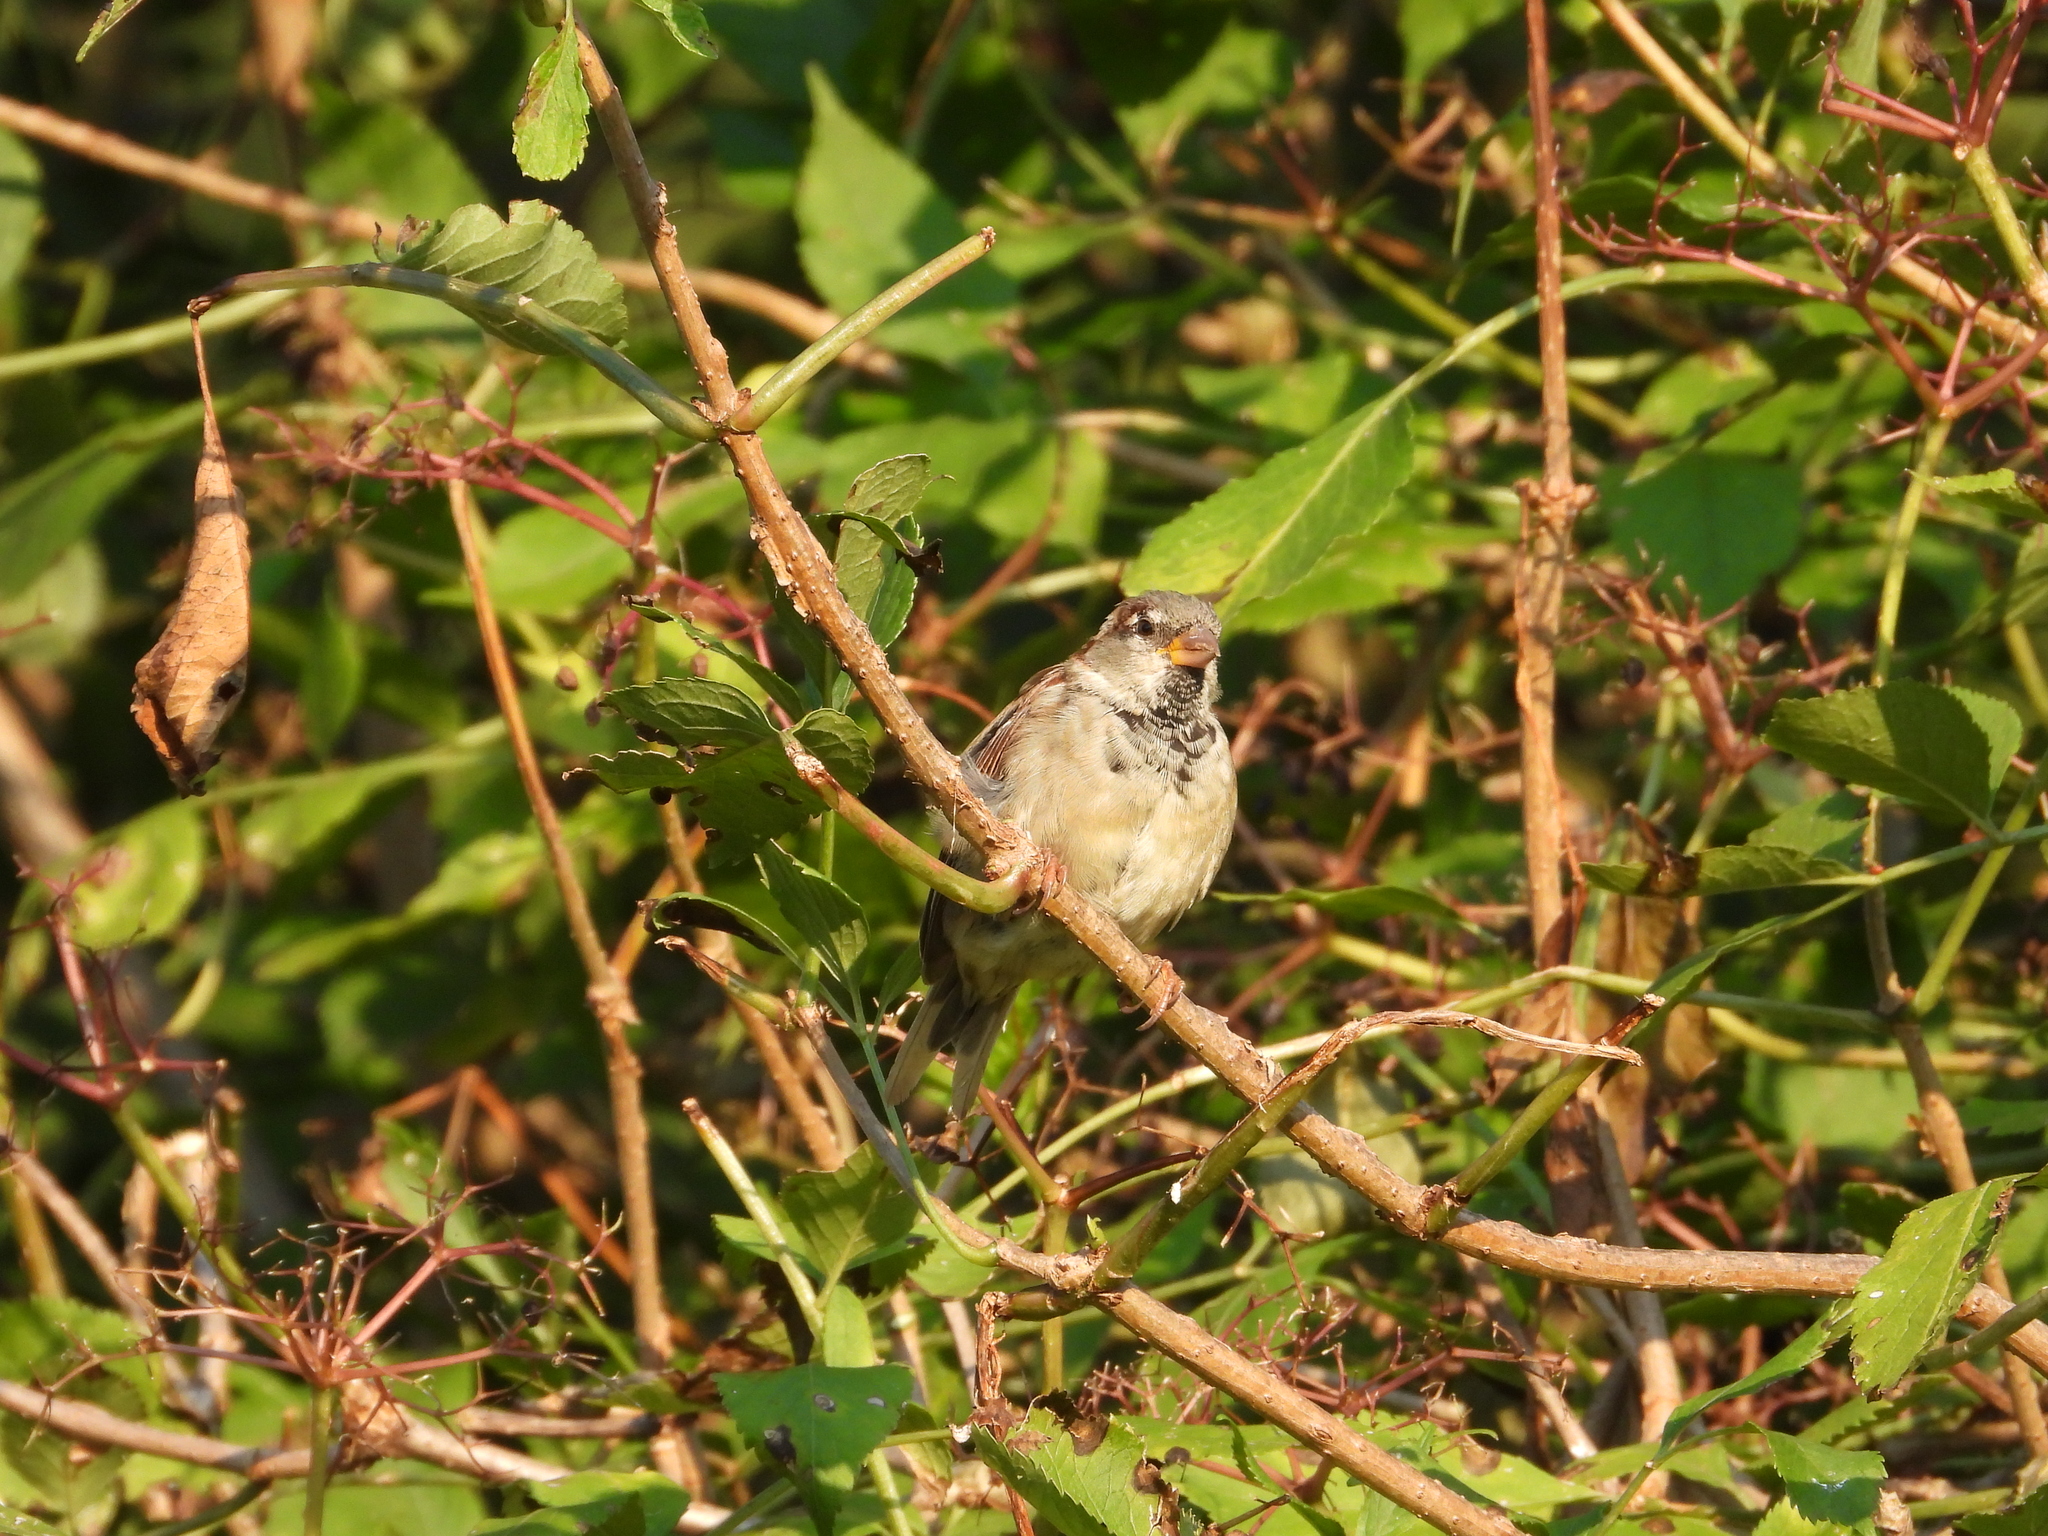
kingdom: Animalia
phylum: Chordata
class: Aves
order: Passeriformes
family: Passeridae
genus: Passer
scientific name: Passer domesticus
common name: House sparrow
